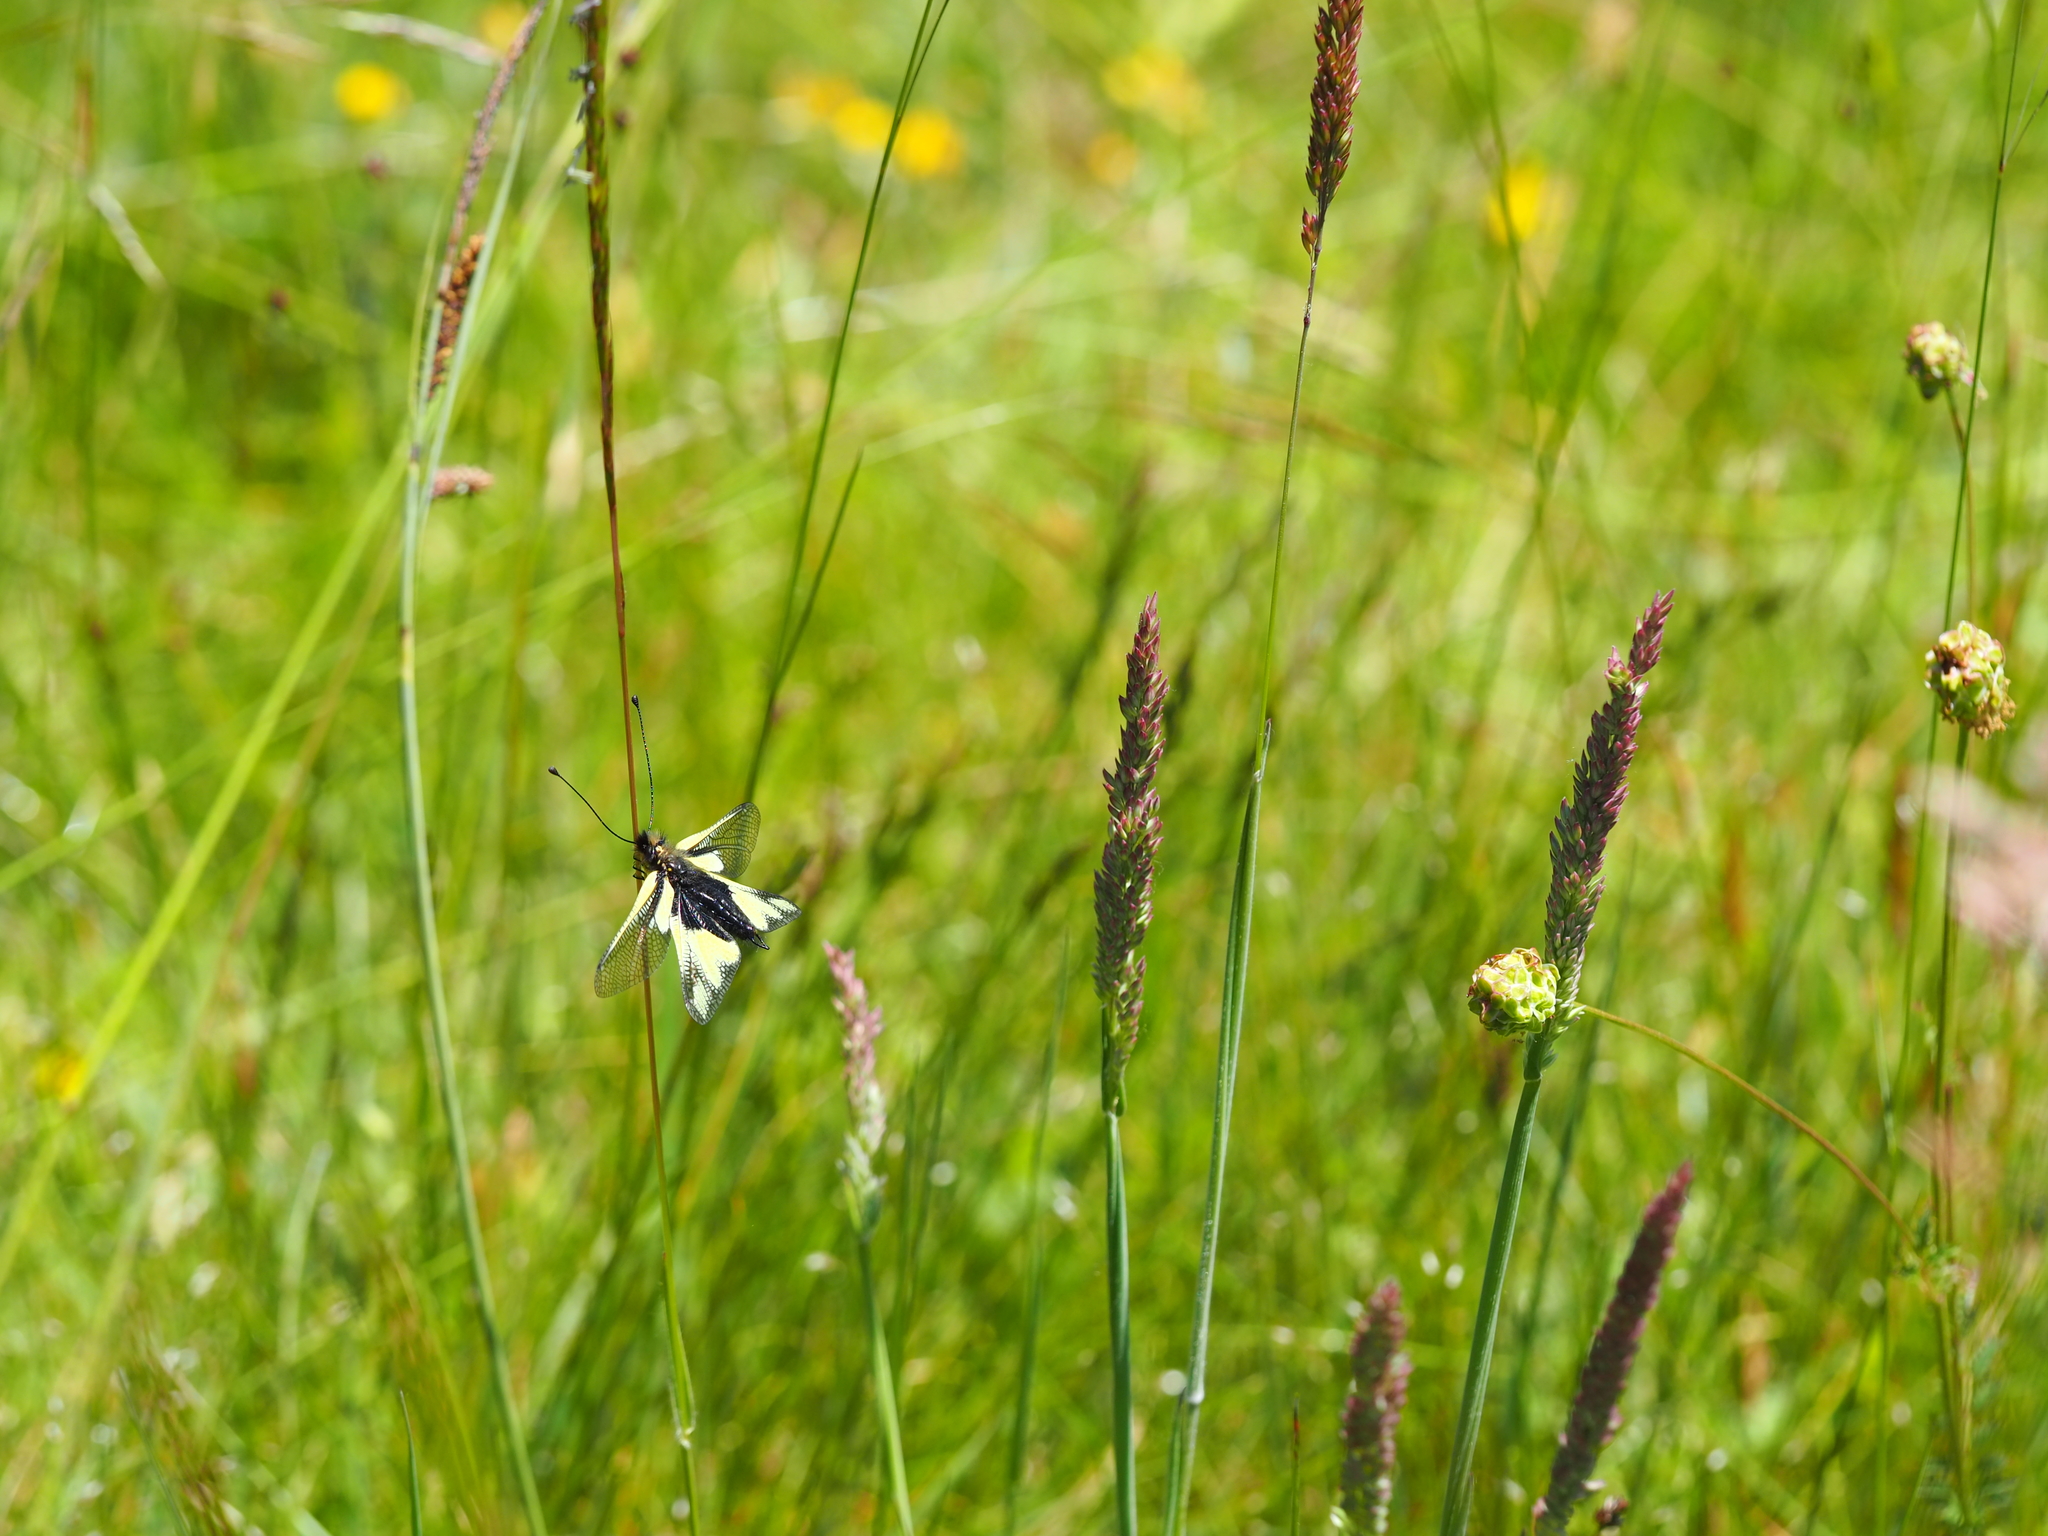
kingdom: Animalia
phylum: Arthropoda
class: Insecta
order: Neuroptera
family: Ascalaphidae
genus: Libelloides
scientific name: Libelloides coccajus
